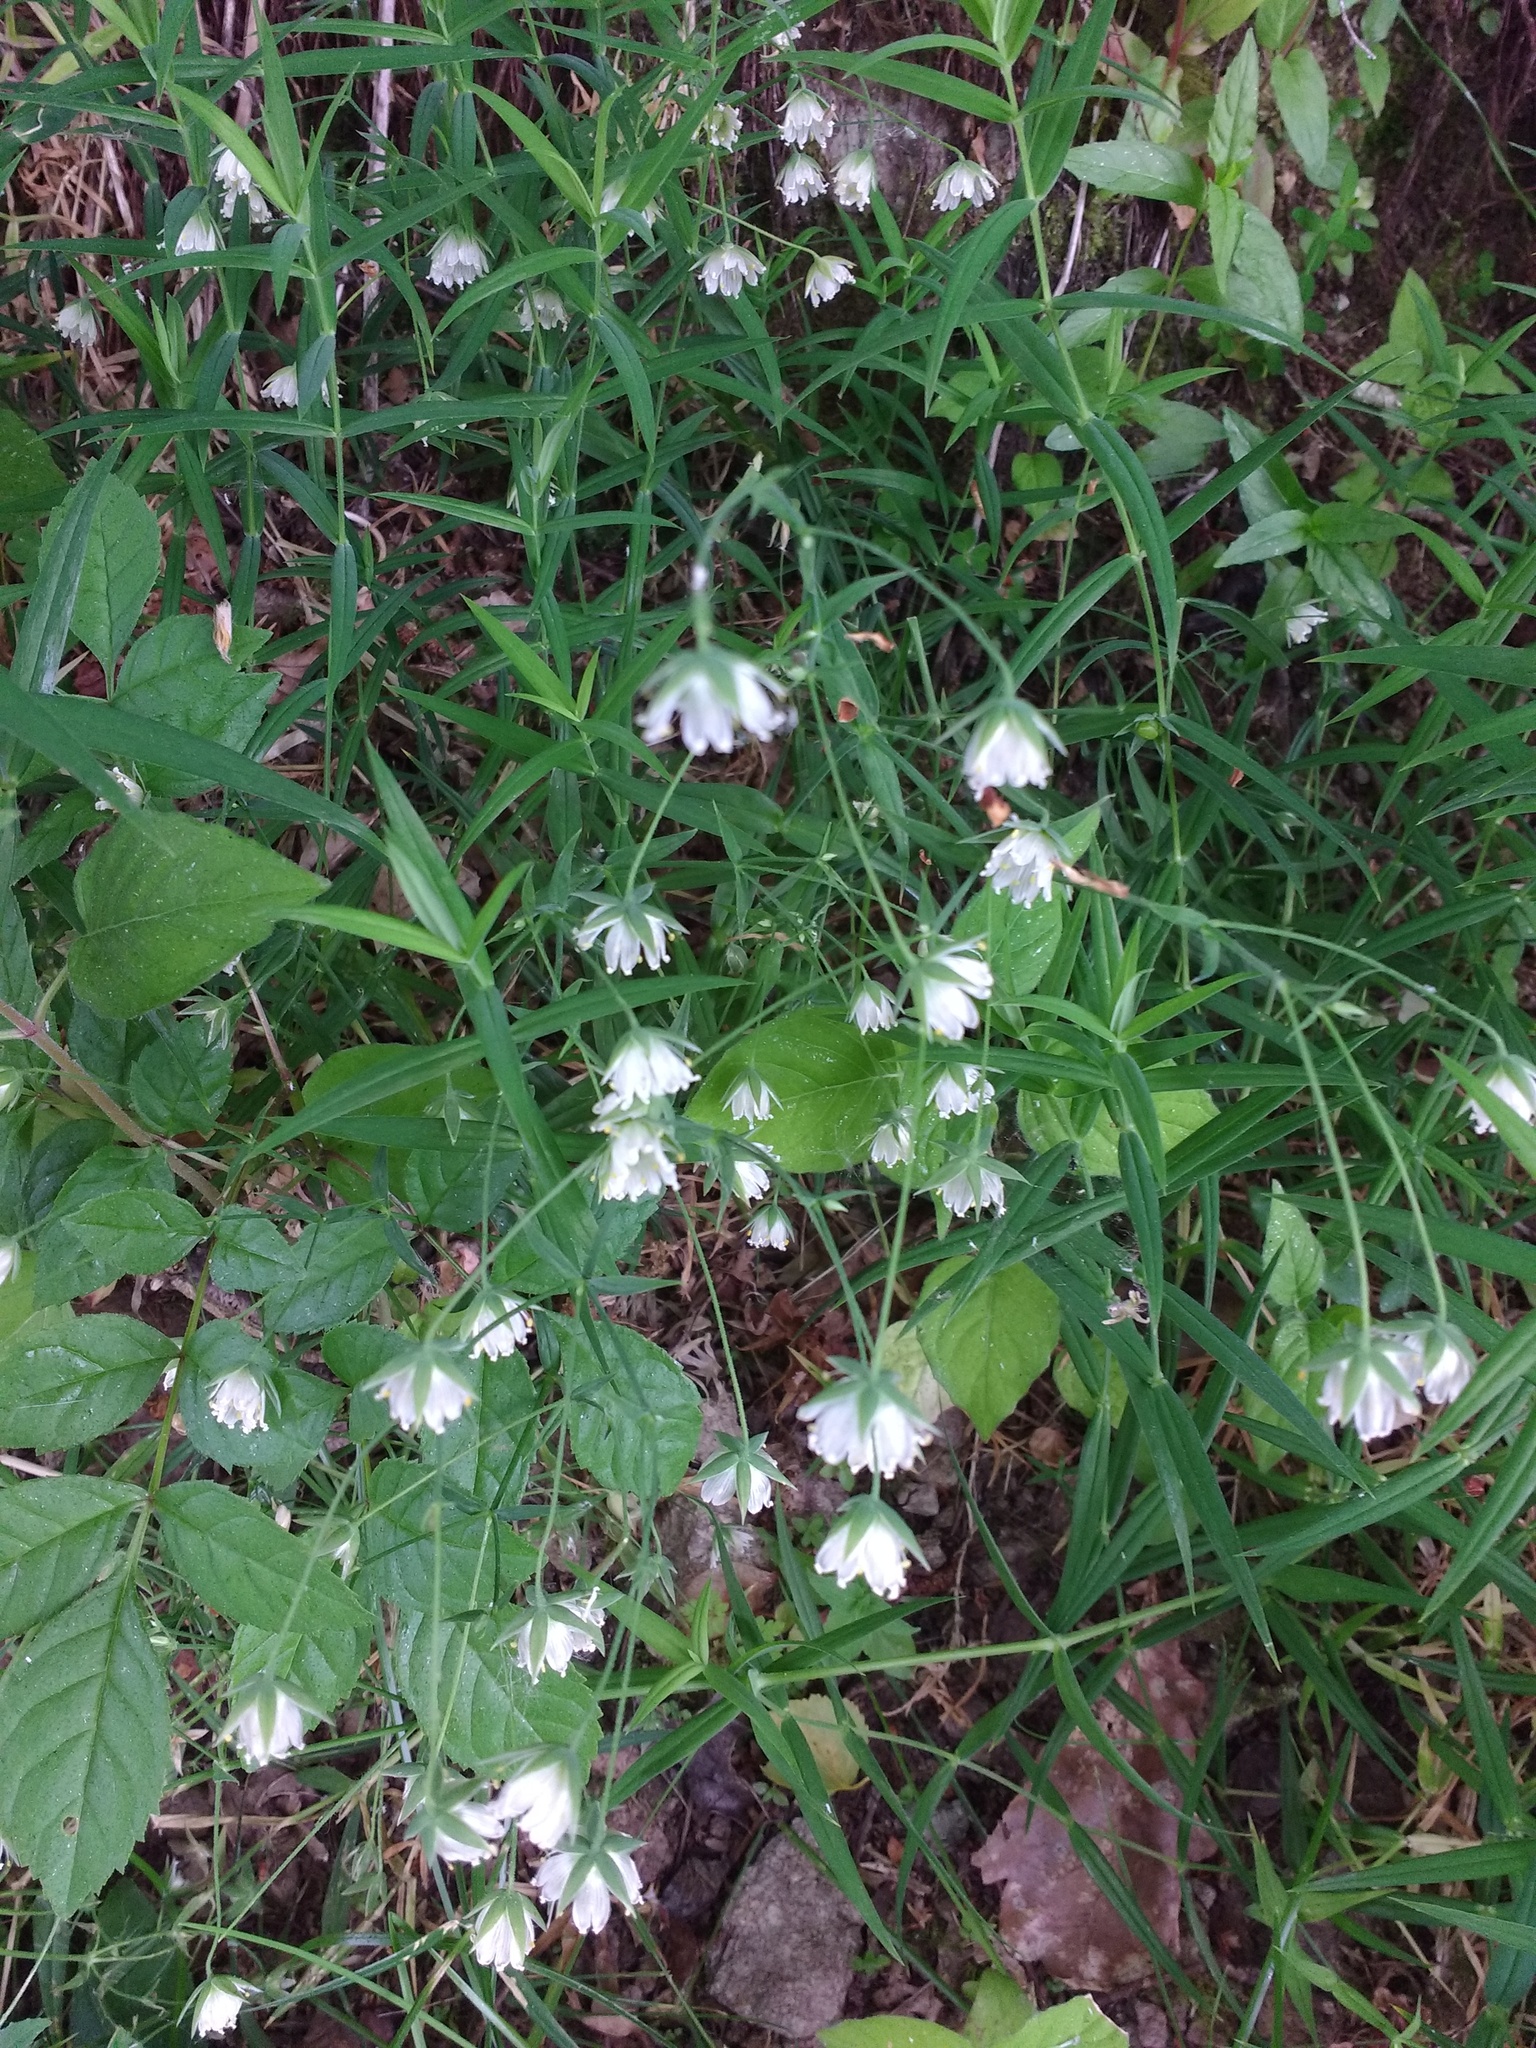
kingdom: Plantae
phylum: Tracheophyta
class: Magnoliopsida
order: Caryophyllales
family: Caryophyllaceae
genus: Rabelera
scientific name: Rabelera holostea
